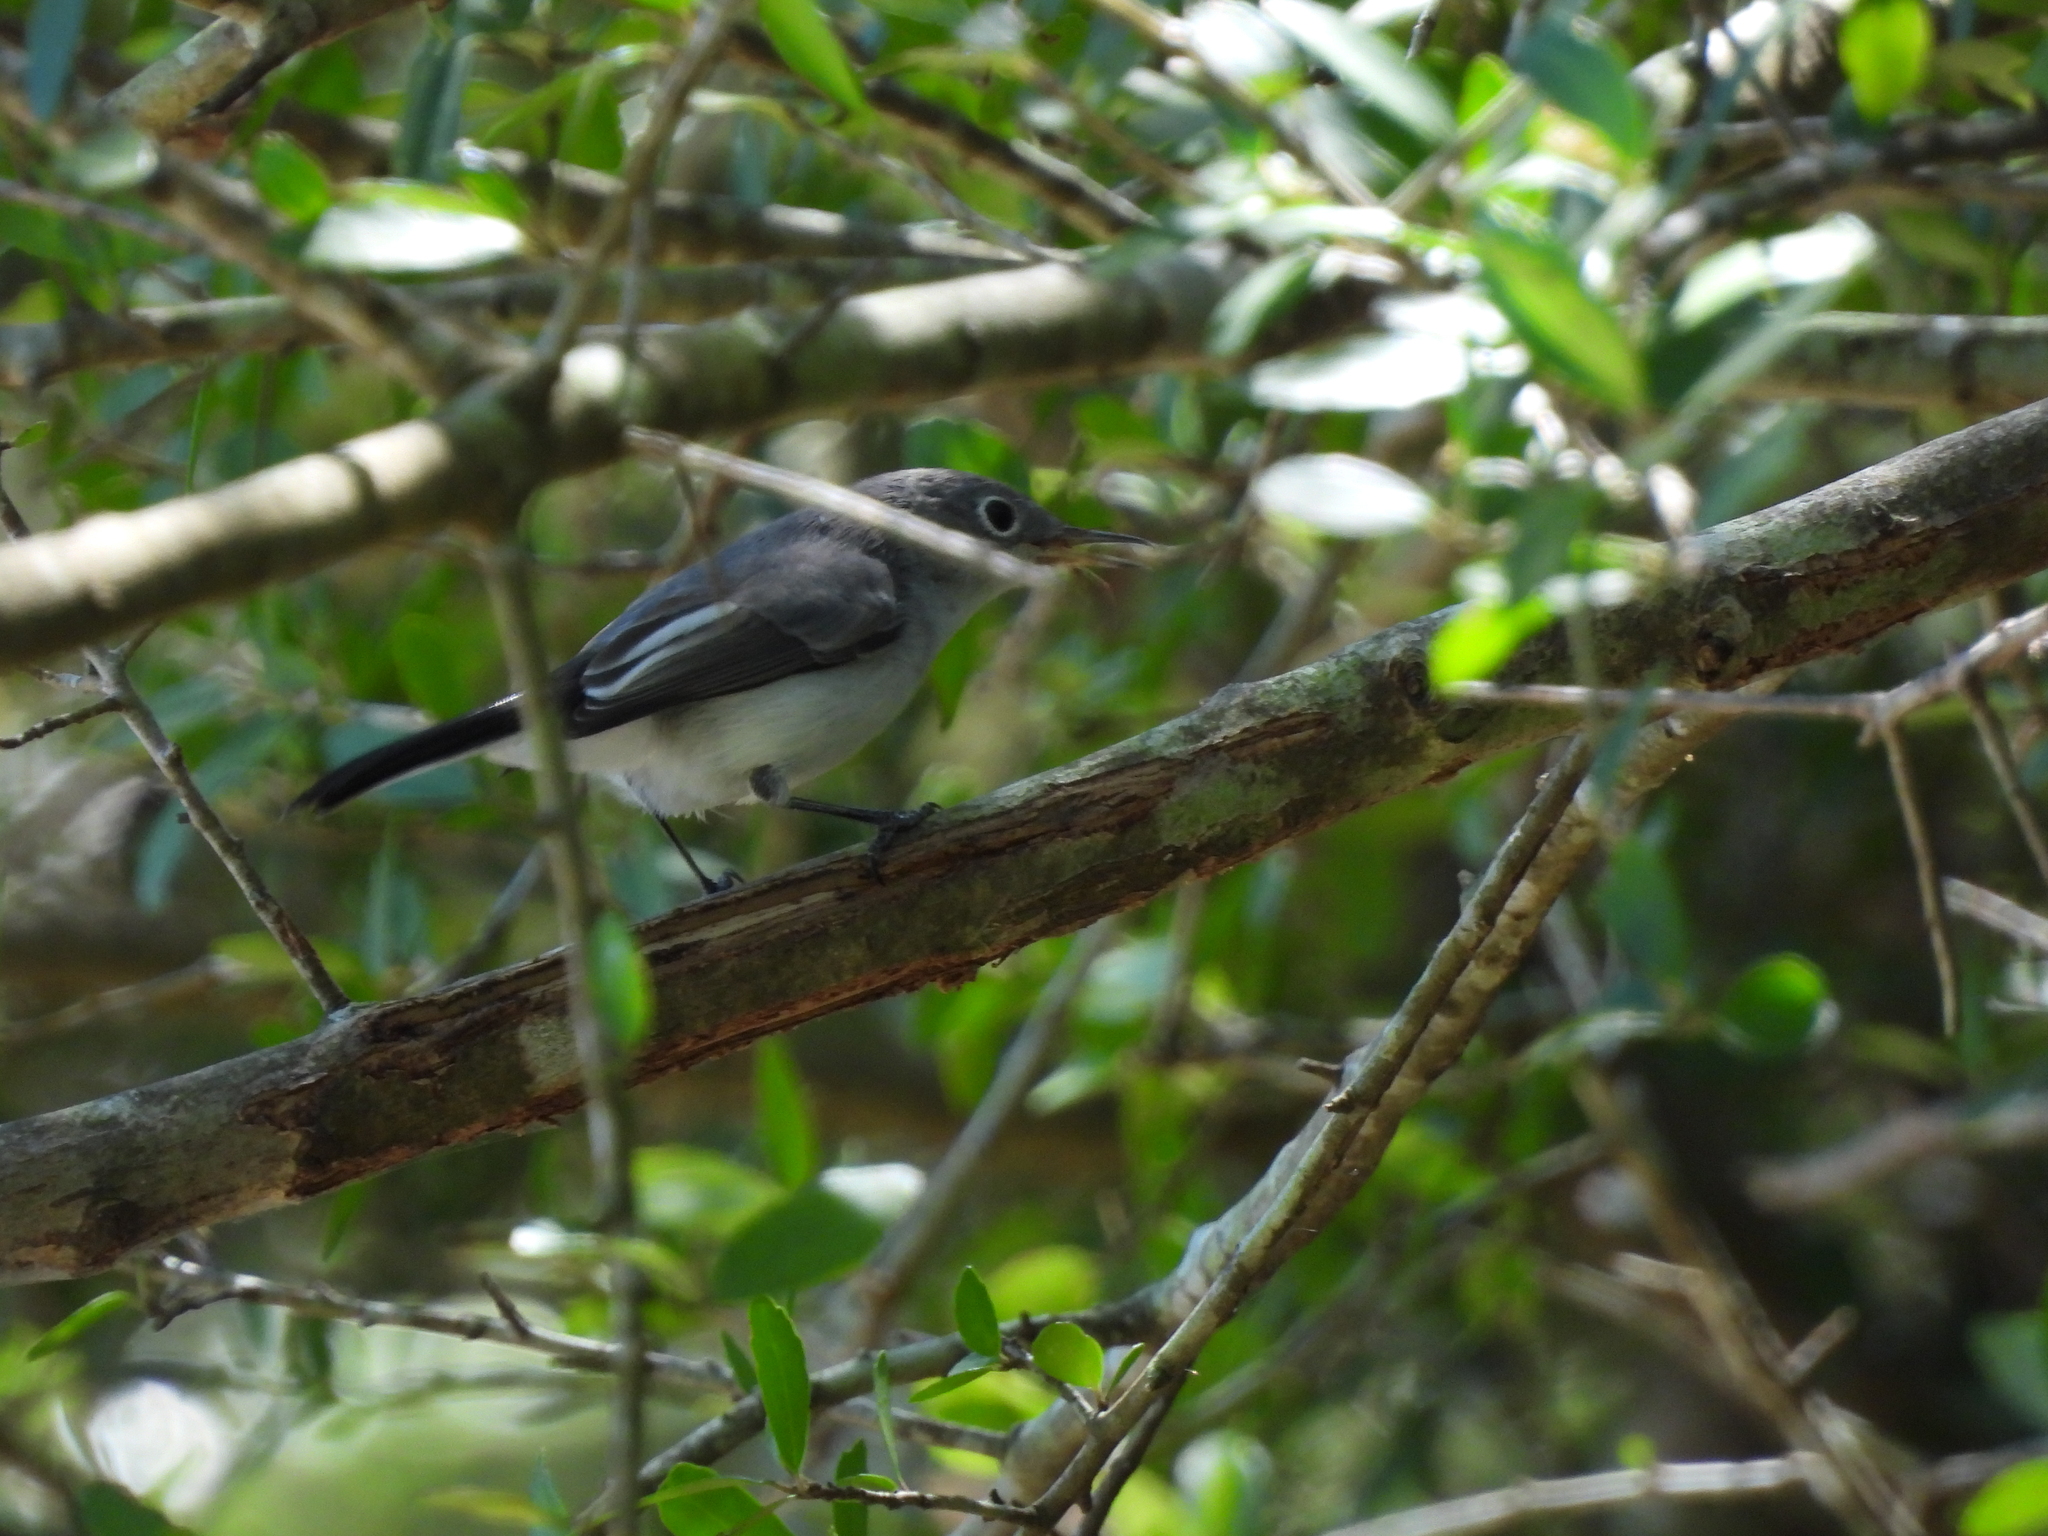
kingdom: Animalia
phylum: Chordata
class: Aves
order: Passeriformes
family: Polioptilidae
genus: Polioptila
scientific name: Polioptila caerulea
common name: Blue-gray gnatcatcher
